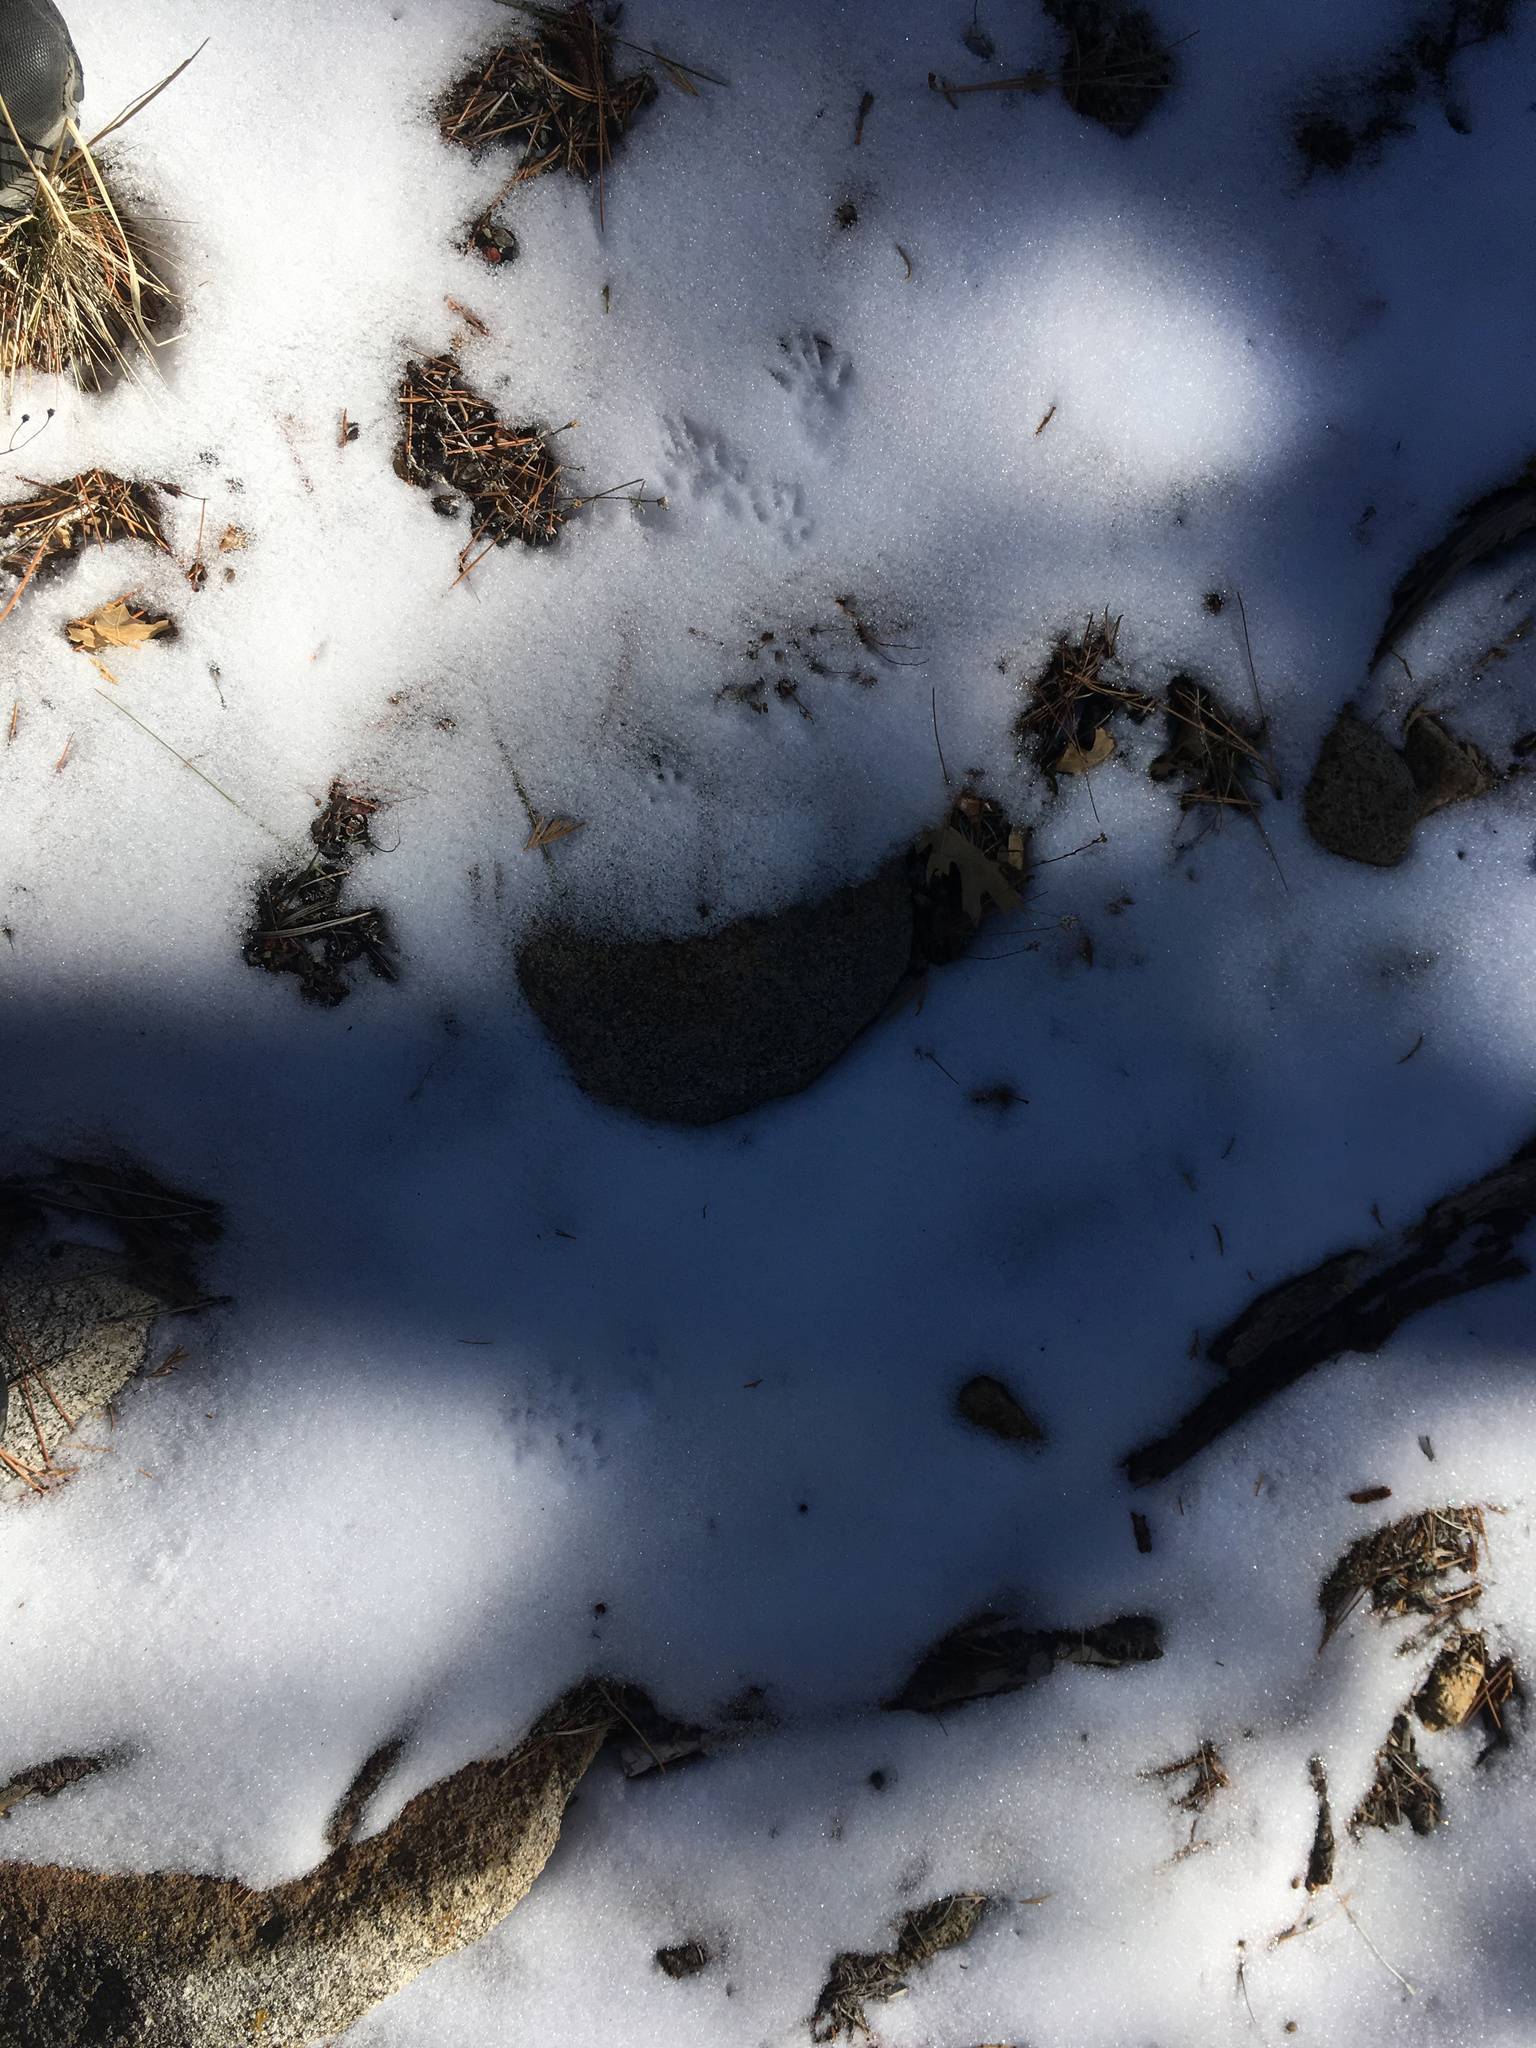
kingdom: Animalia
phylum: Chordata
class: Mammalia
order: Rodentia
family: Sciuridae
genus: Sciurus
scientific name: Sciurus griseus
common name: Western gray squirrel
